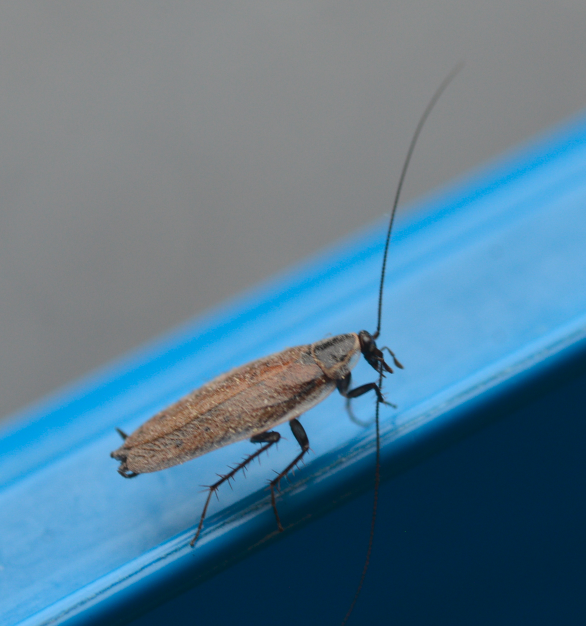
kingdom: Animalia
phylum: Arthropoda
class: Insecta
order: Blattodea
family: Ectobiidae
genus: Ectobius
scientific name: Ectobius sylvestris
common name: Forest cockroach
